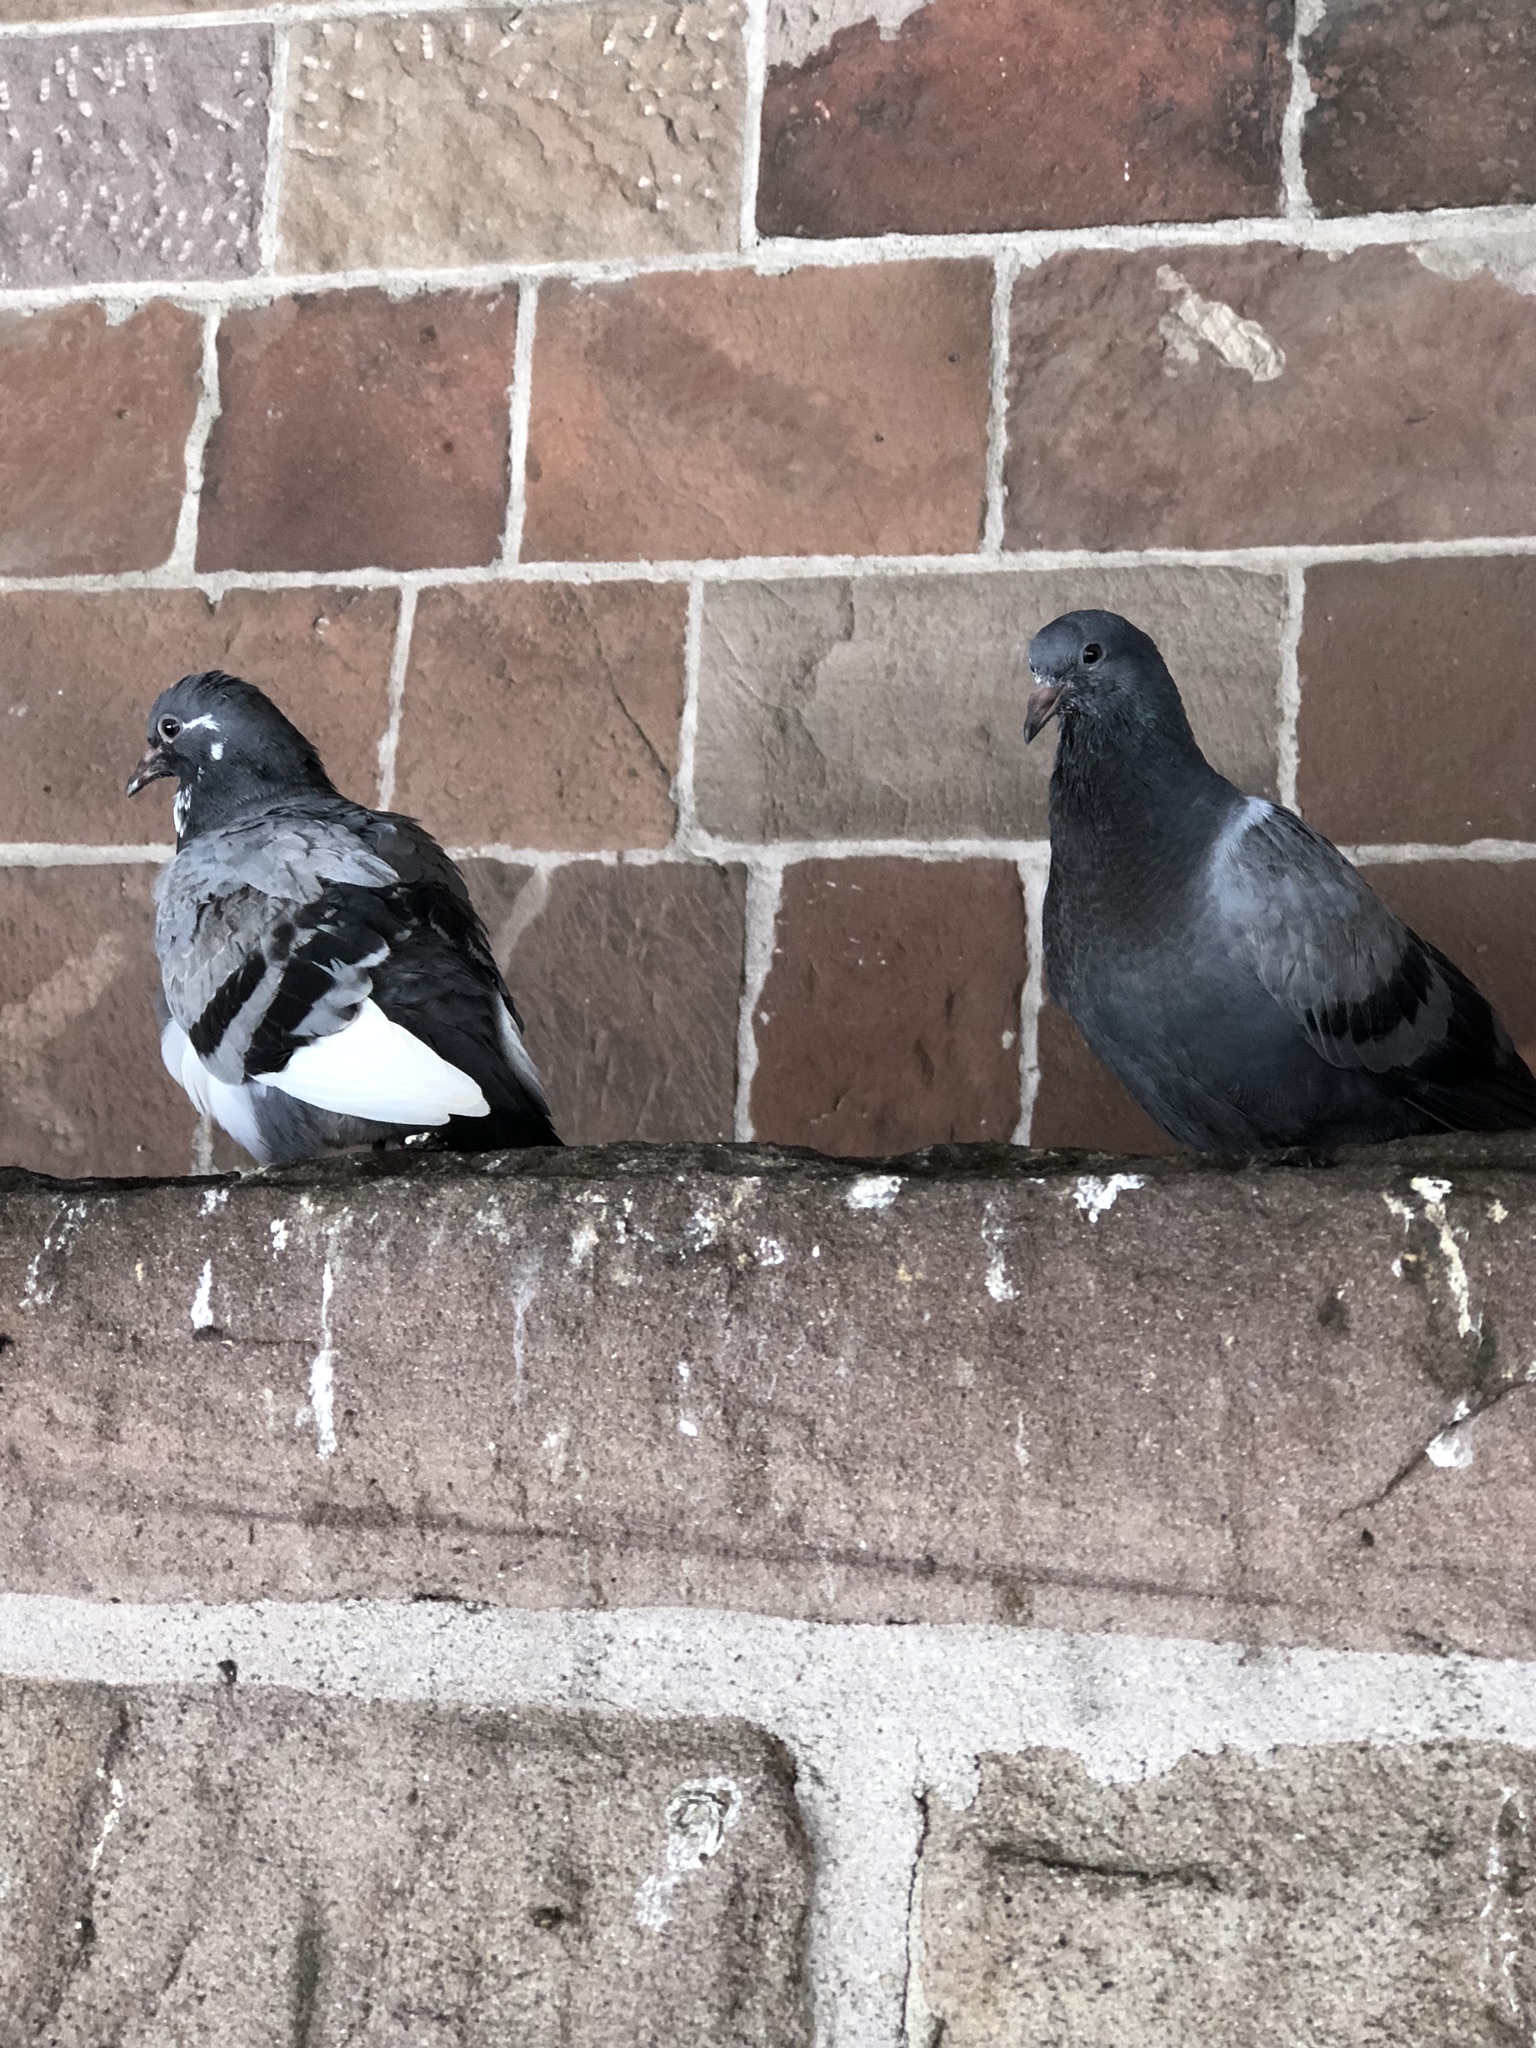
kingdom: Animalia
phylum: Chordata
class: Aves
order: Columbiformes
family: Columbidae
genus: Columba
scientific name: Columba livia
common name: Rock pigeon
